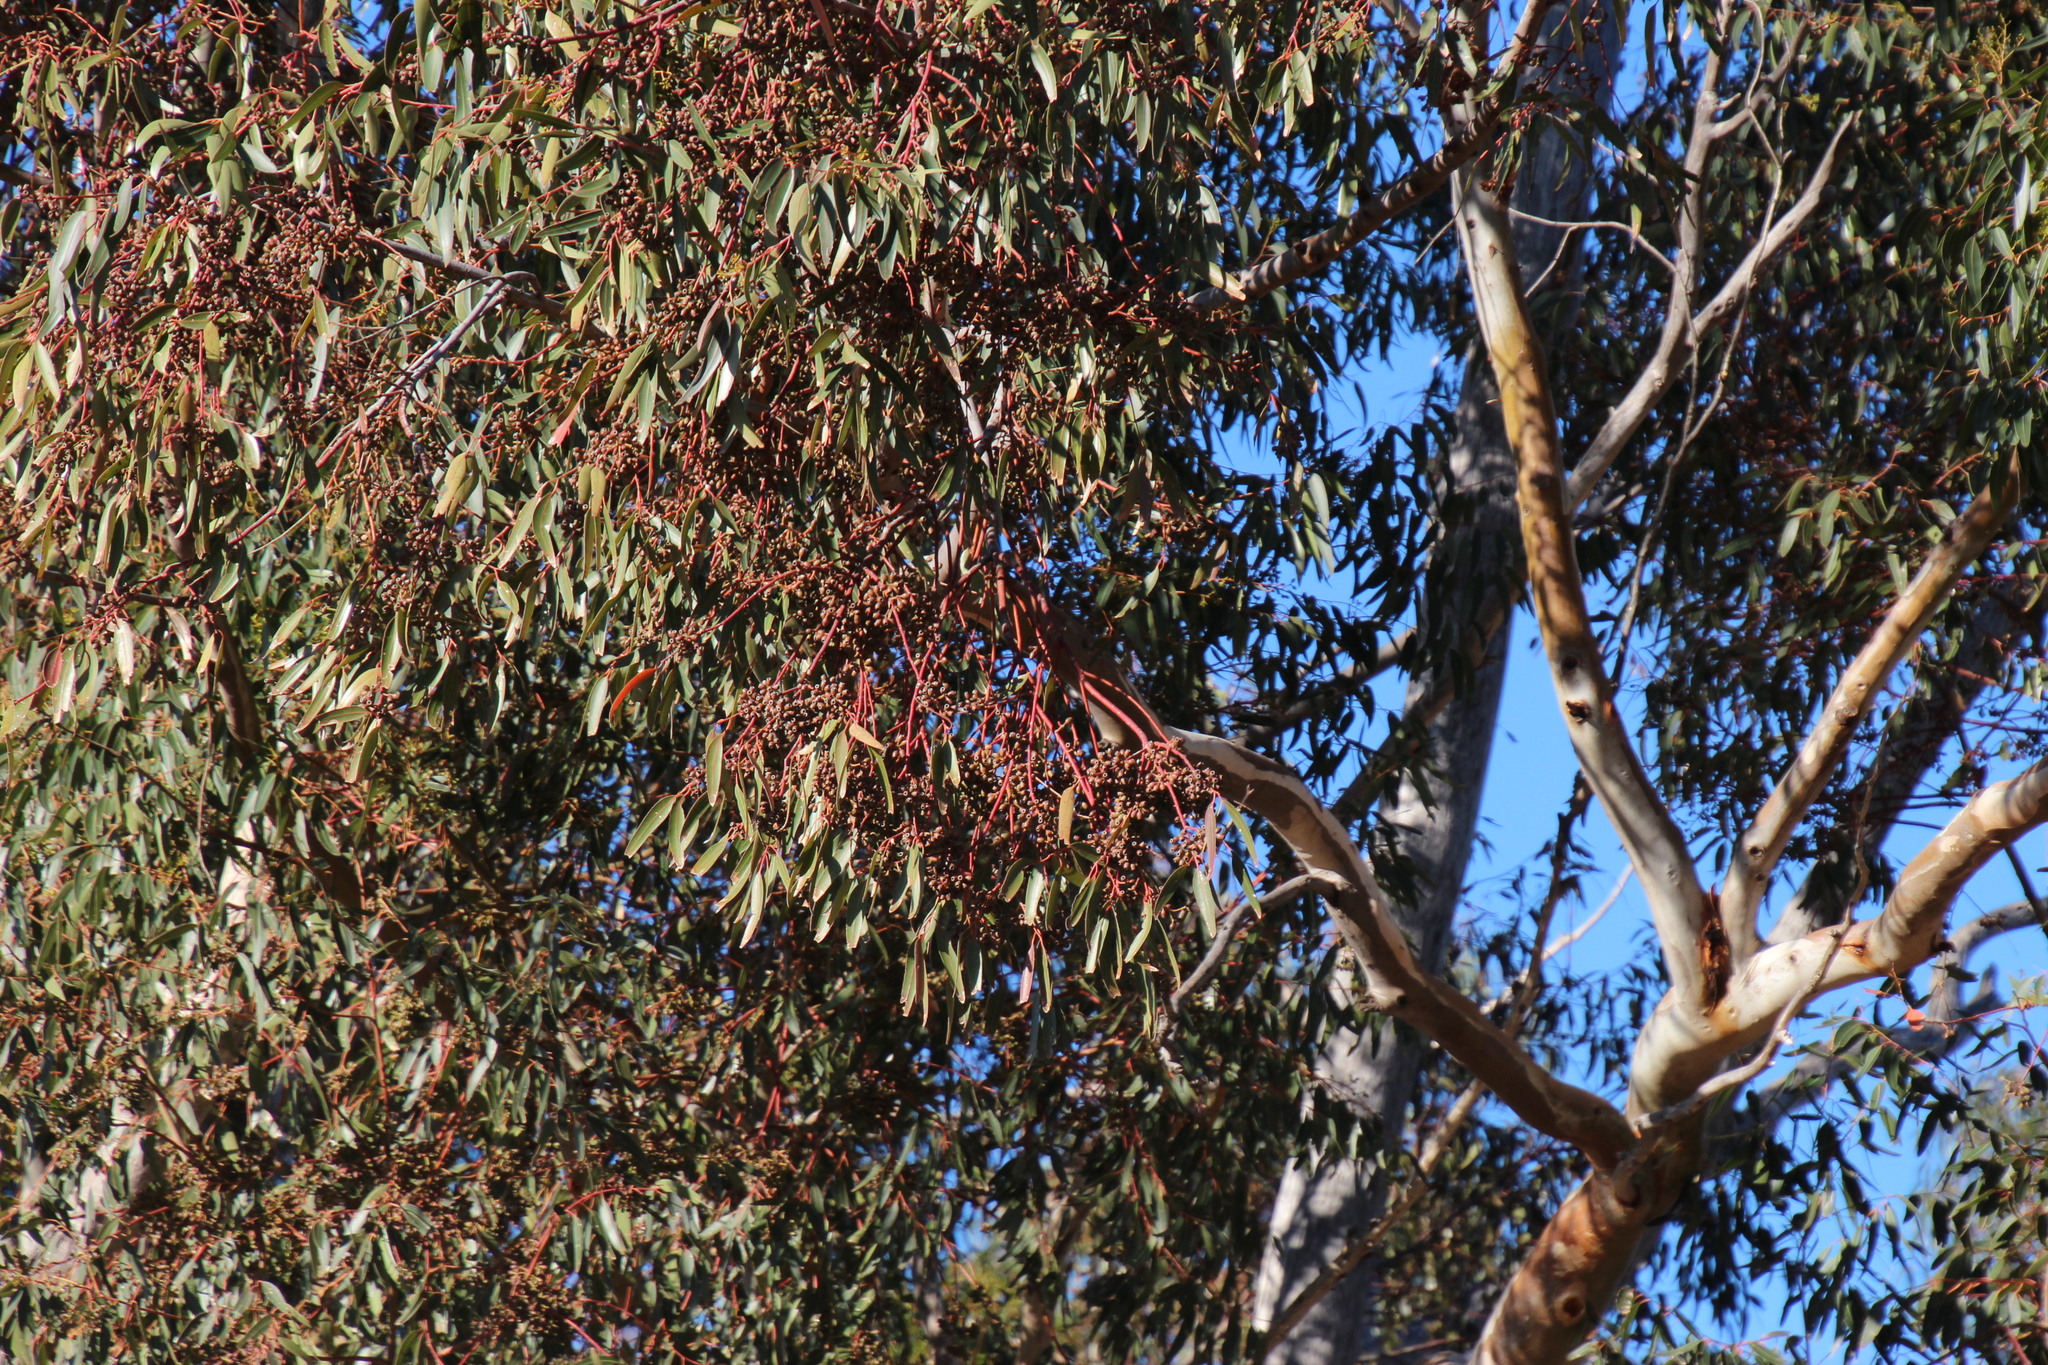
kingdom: Plantae
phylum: Tracheophyta
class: Magnoliopsida
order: Myrtales
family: Myrtaceae
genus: Eucalyptus
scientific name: Eucalyptus cladocalyx
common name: Sugargum
